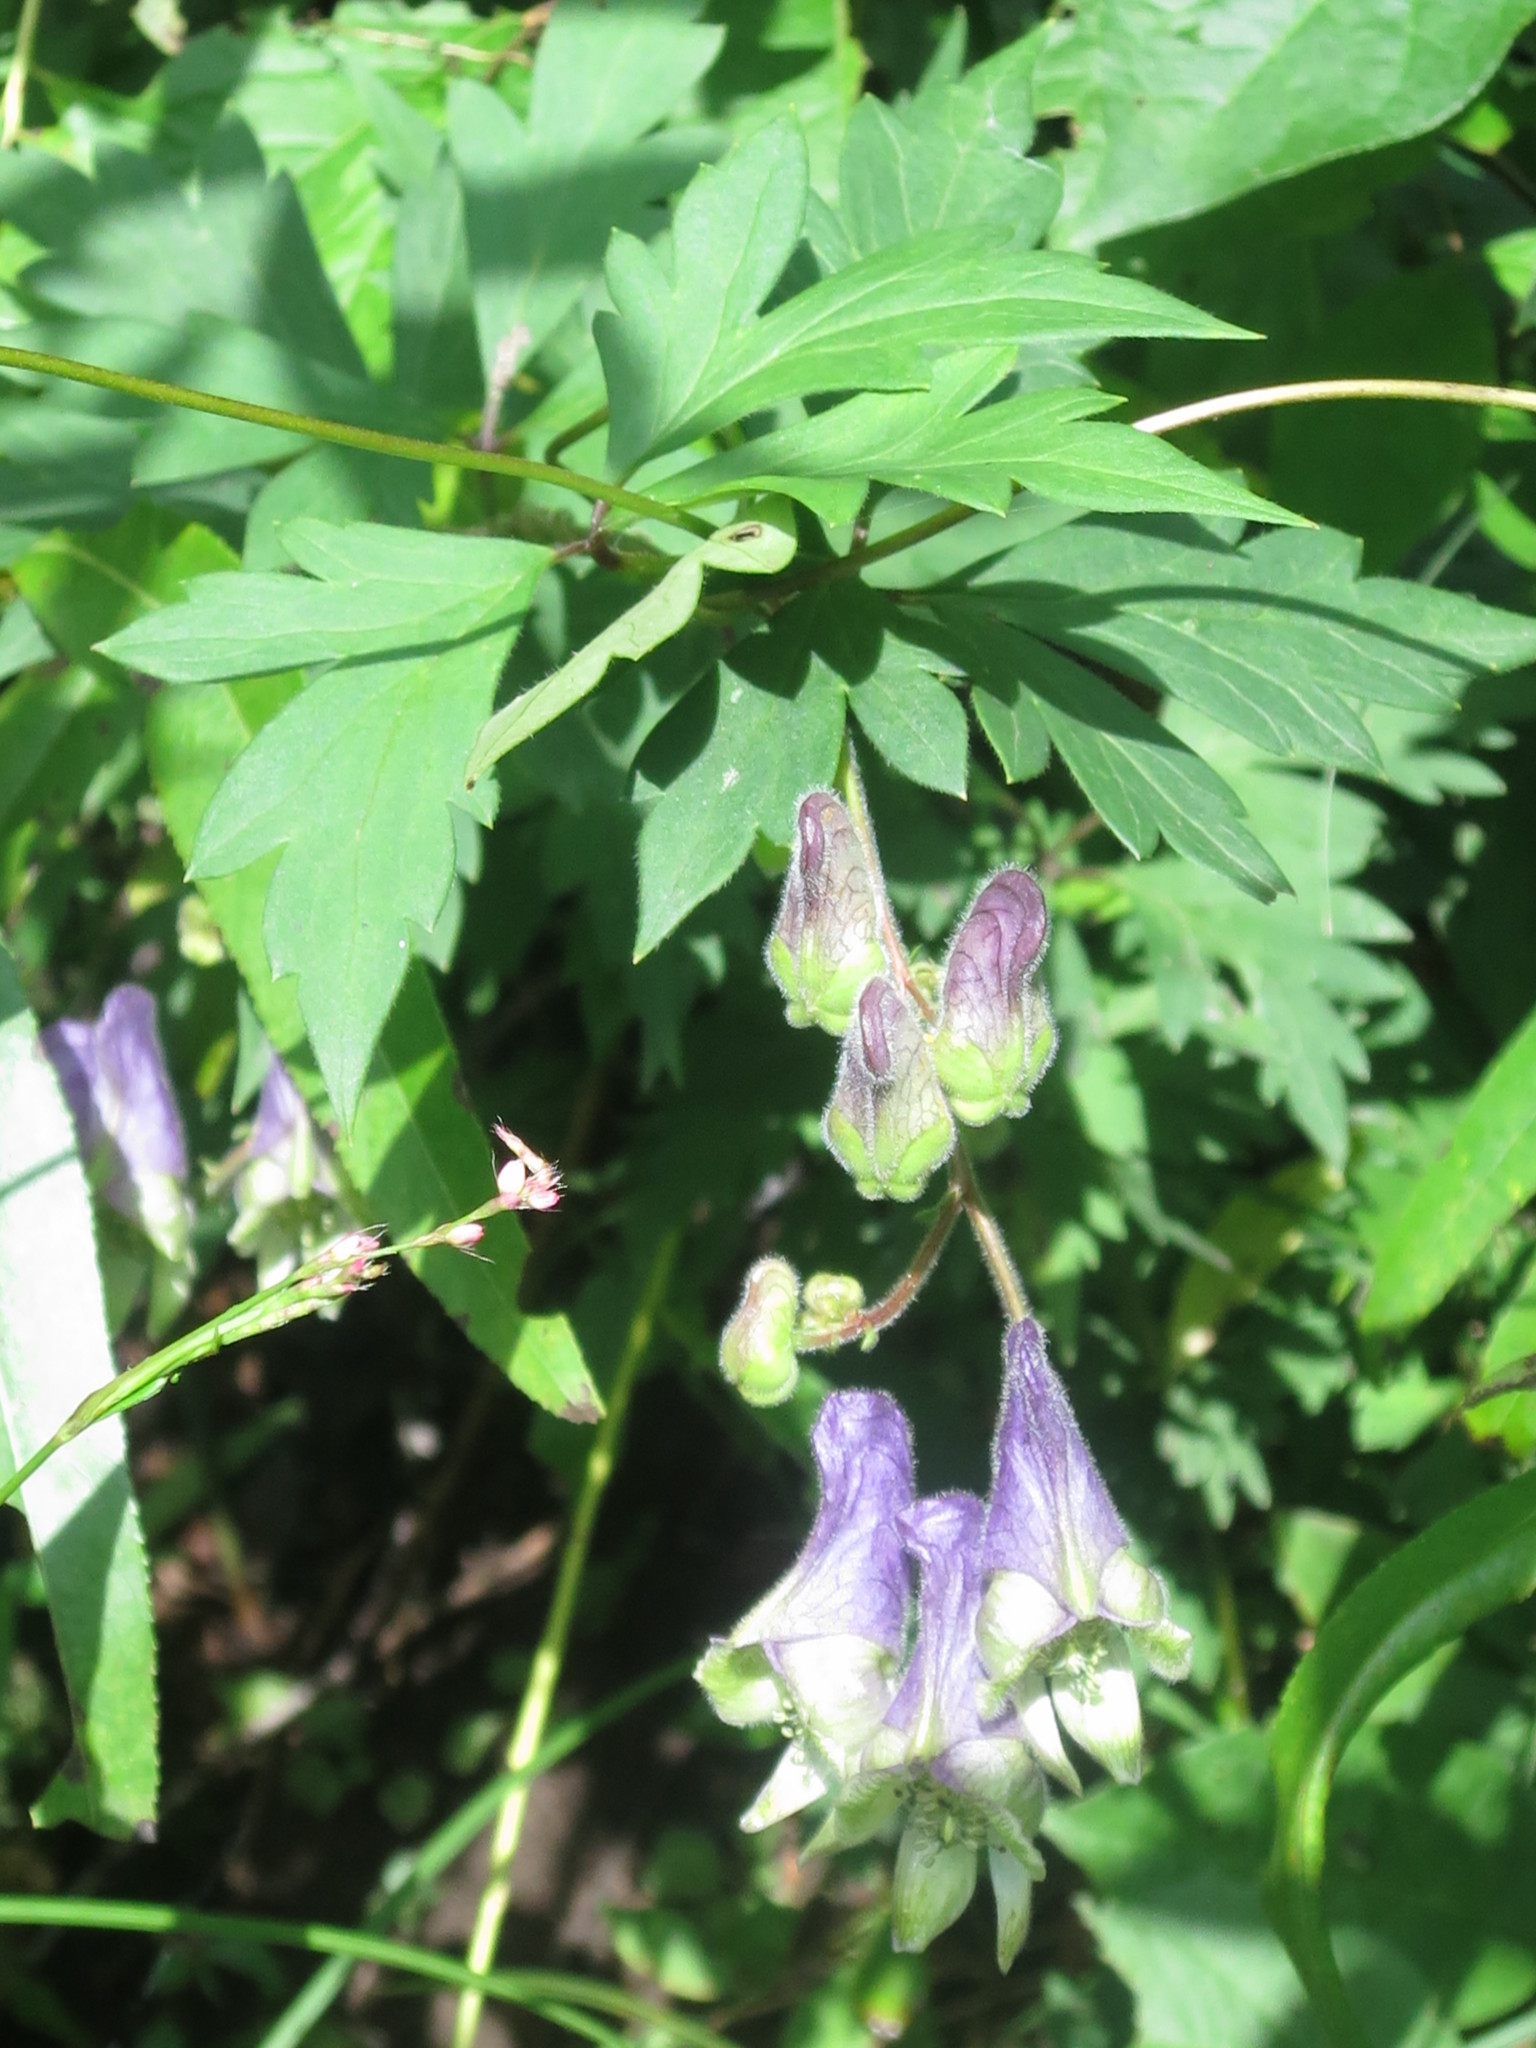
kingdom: Plantae
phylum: Tracheophyta
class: Magnoliopsida
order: Ranunculales
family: Ranunculaceae
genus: Aconitum
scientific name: Aconitum stoloniferum
